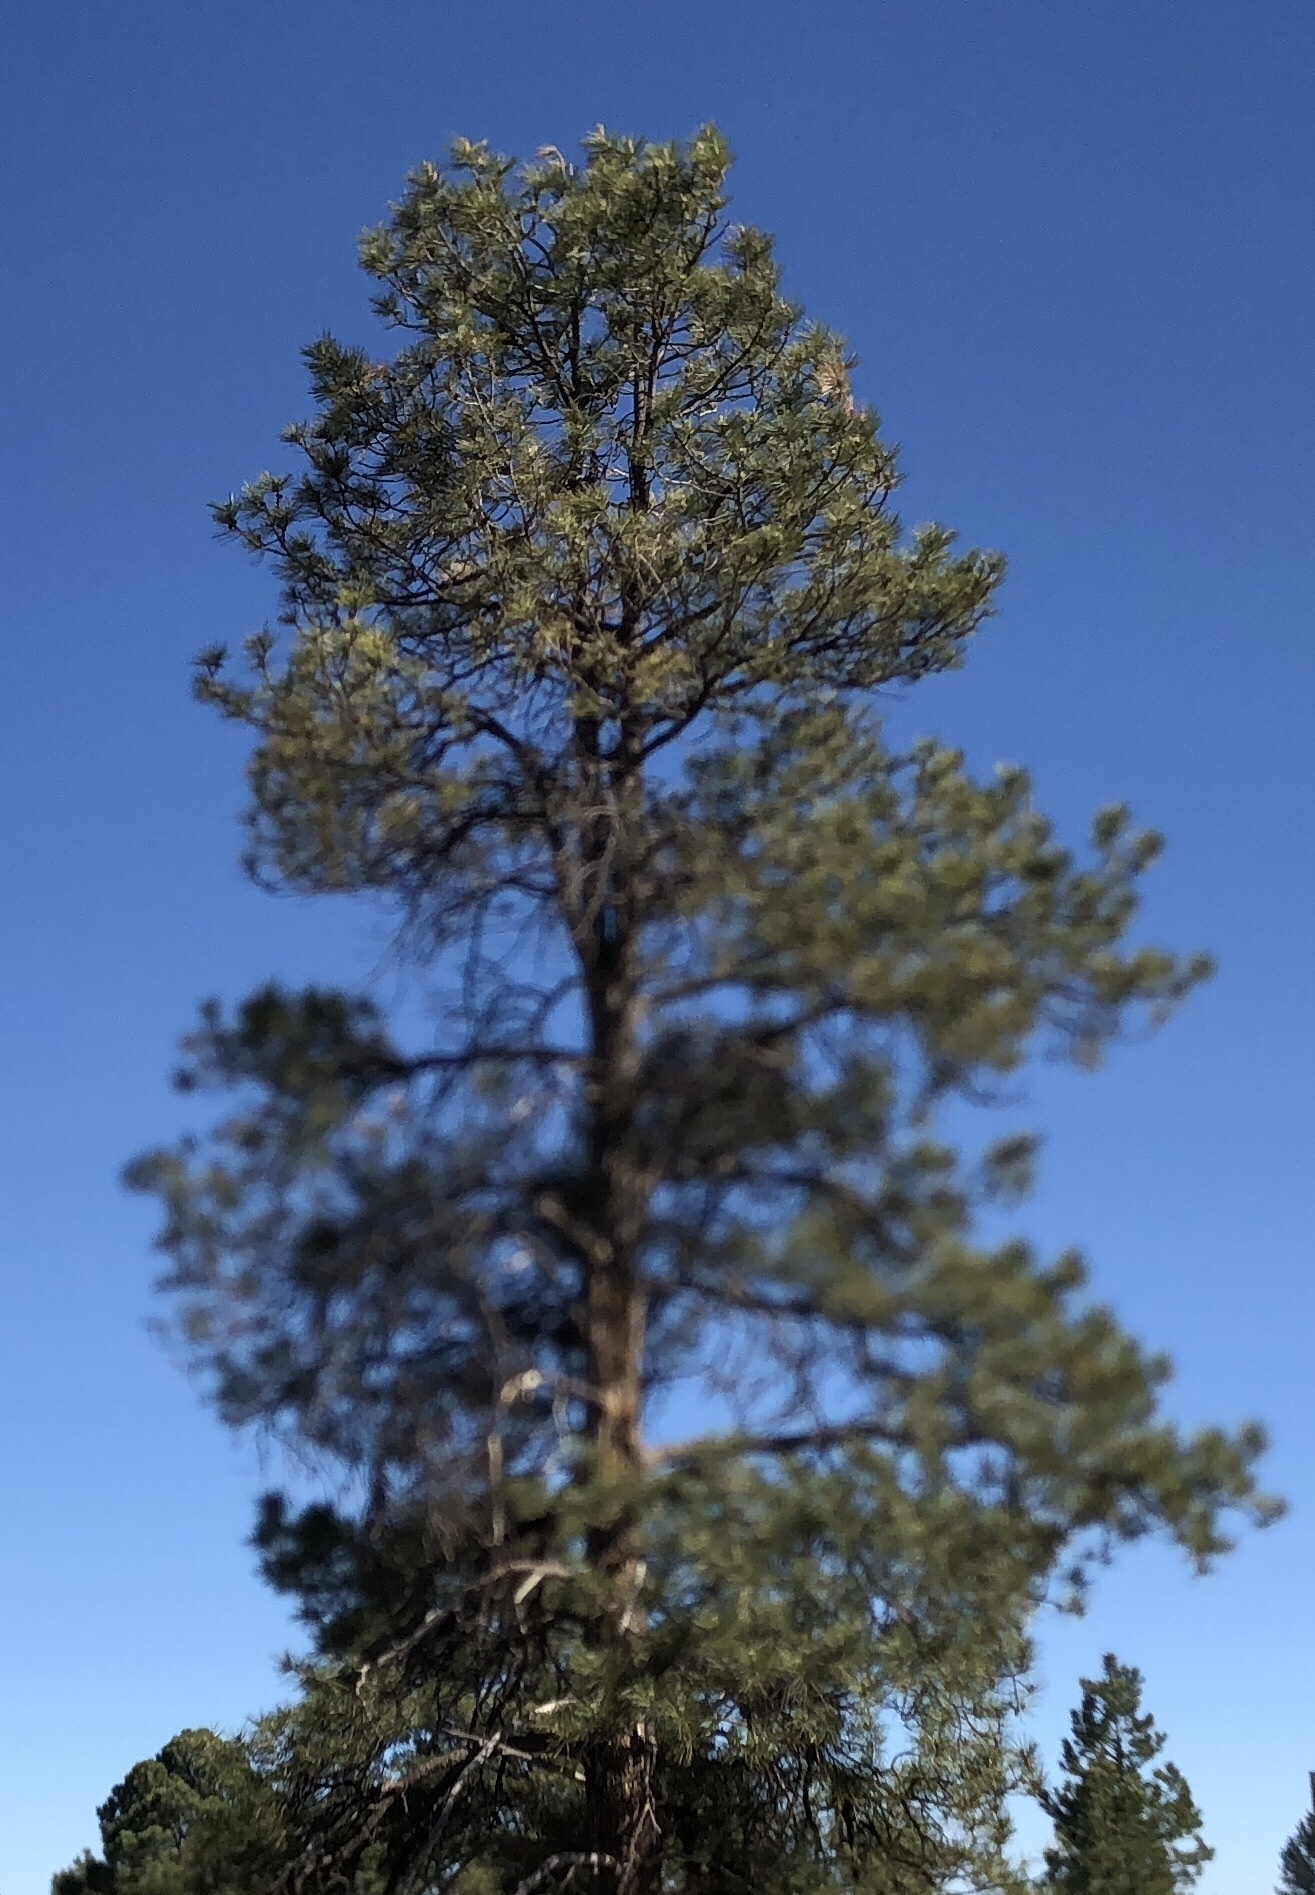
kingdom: Plantae
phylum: Tracheophyta
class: Pinopsida
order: Pinales
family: Pinaceae
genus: Pinus
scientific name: Pinus ponderosa
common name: Western yellow-pine
